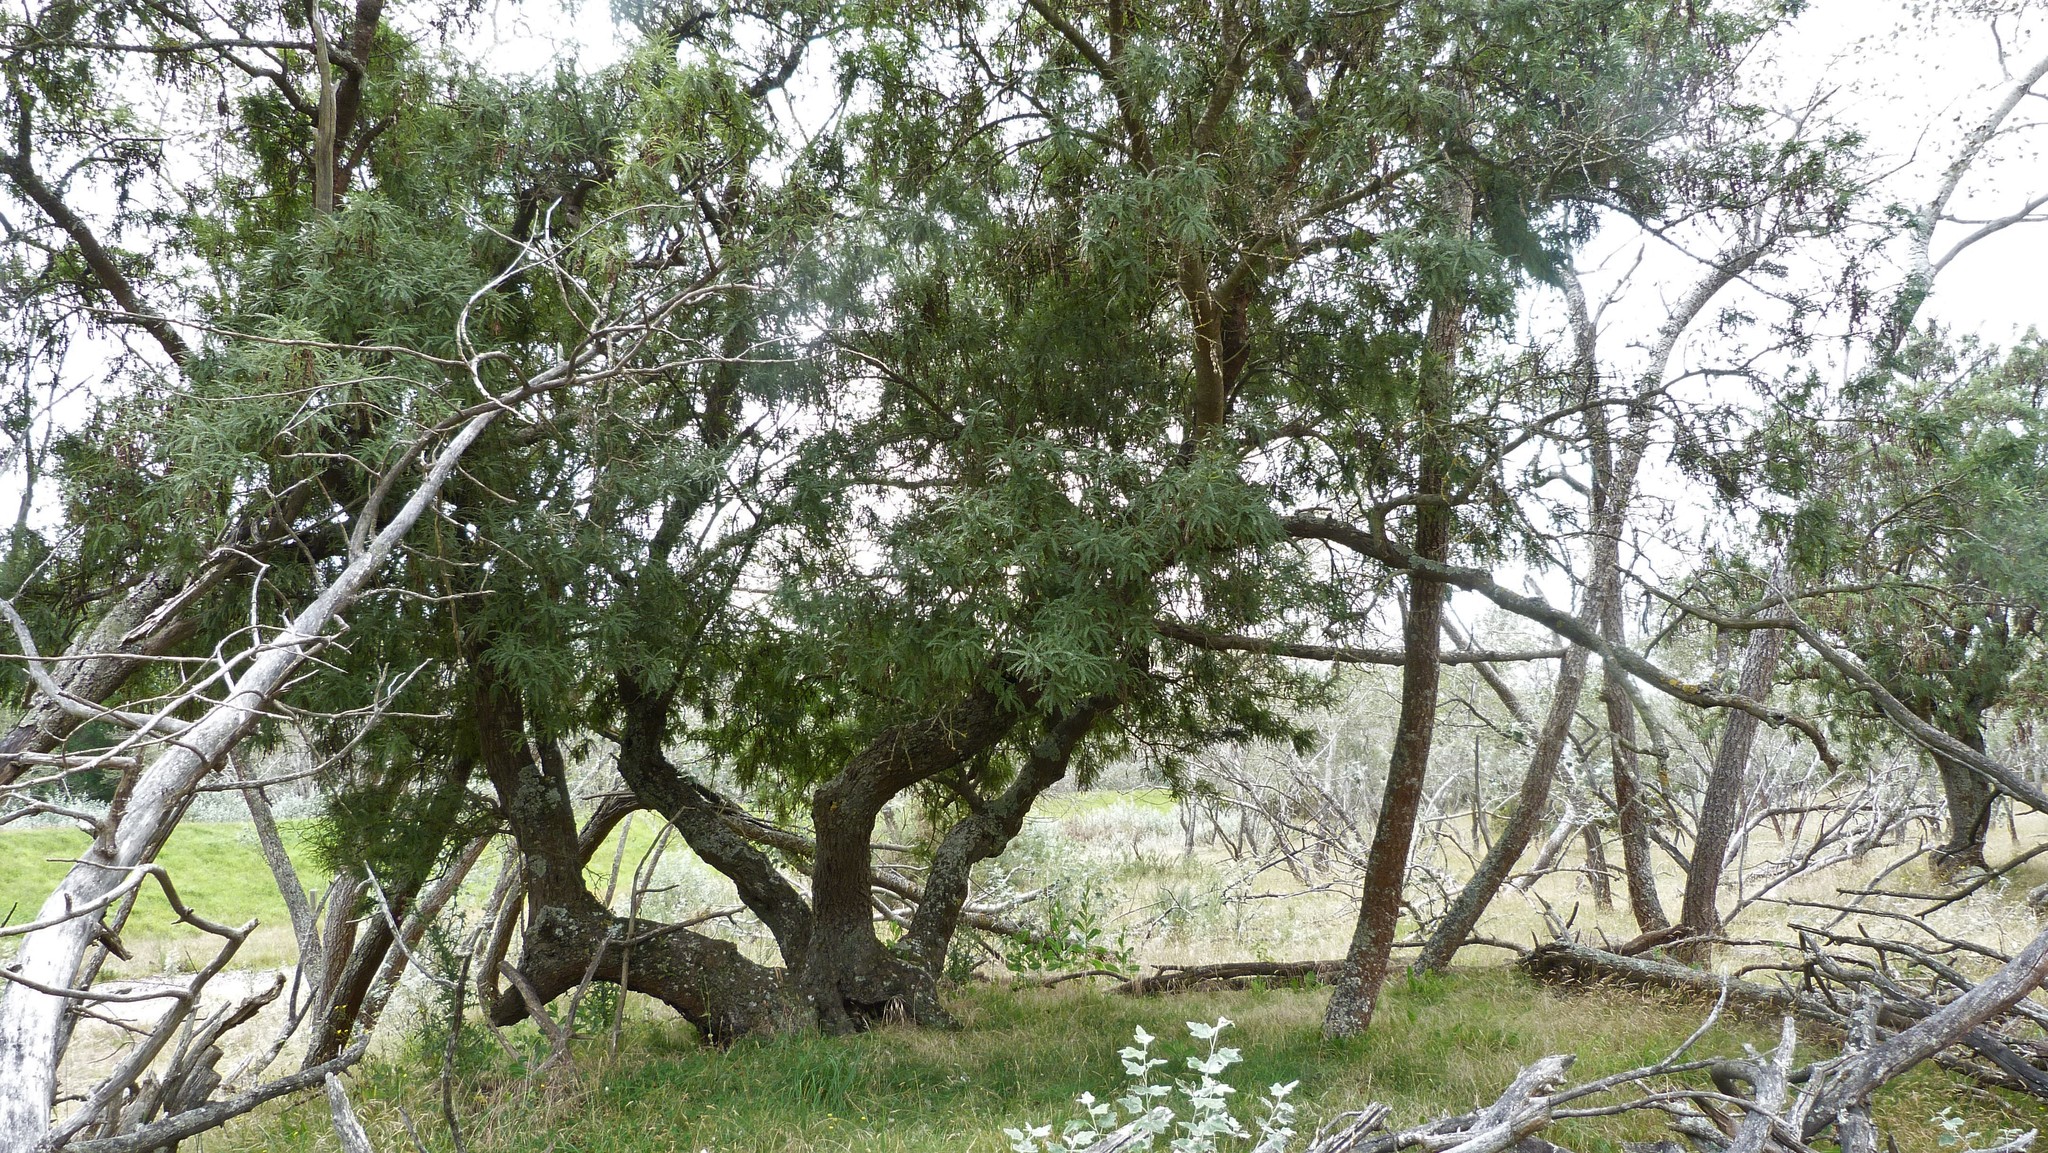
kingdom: Plantae
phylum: Tracheophyta
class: Magnoliopsida
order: Fabales
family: Fabaceae
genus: Sophora
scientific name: Sophora microphylla
